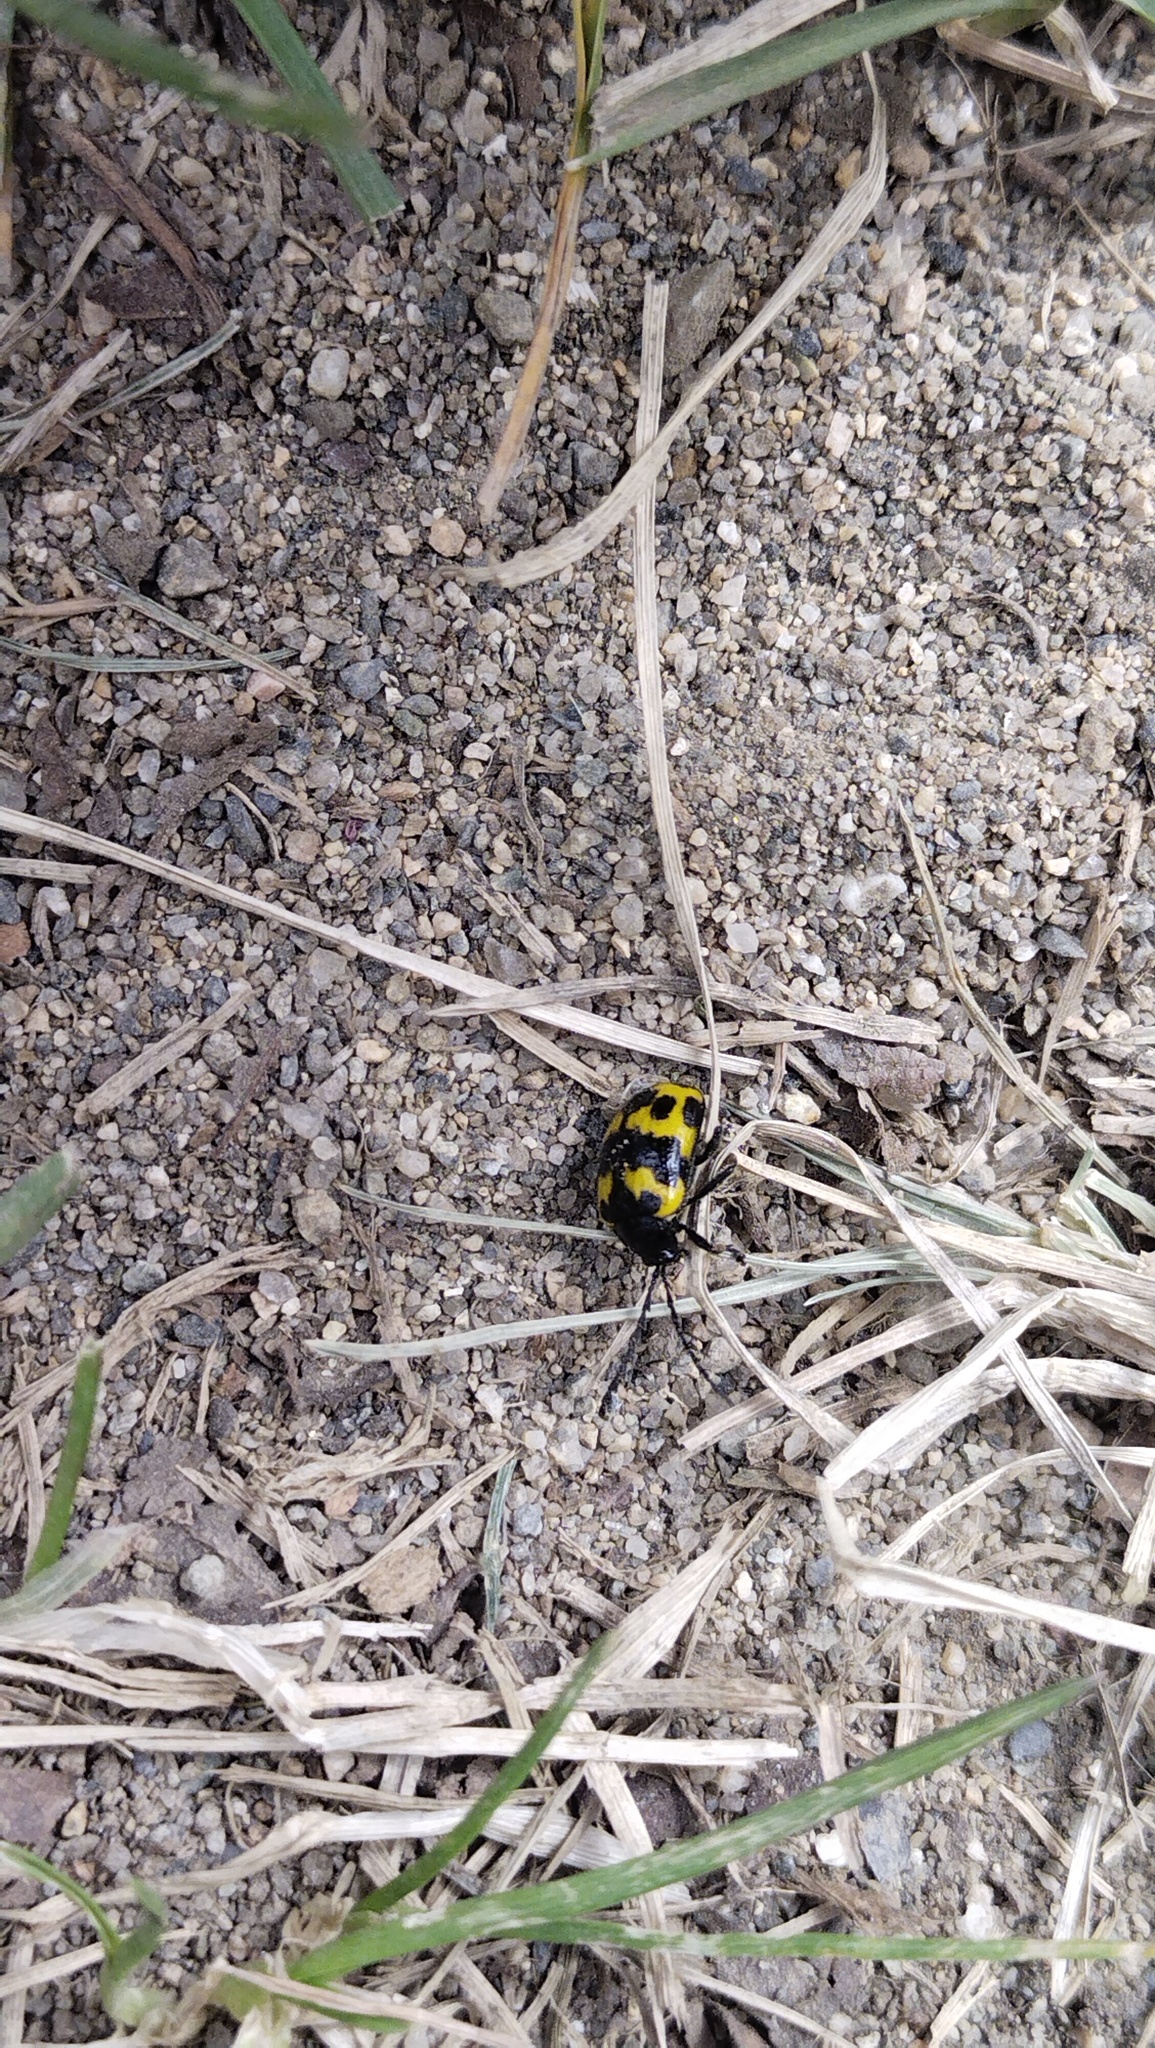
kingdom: Animalia
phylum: Arthropoda
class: Insecta
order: Coleoptera
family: Chrysomelidae
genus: Gallerucida
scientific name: Gallerucida bifasciata
